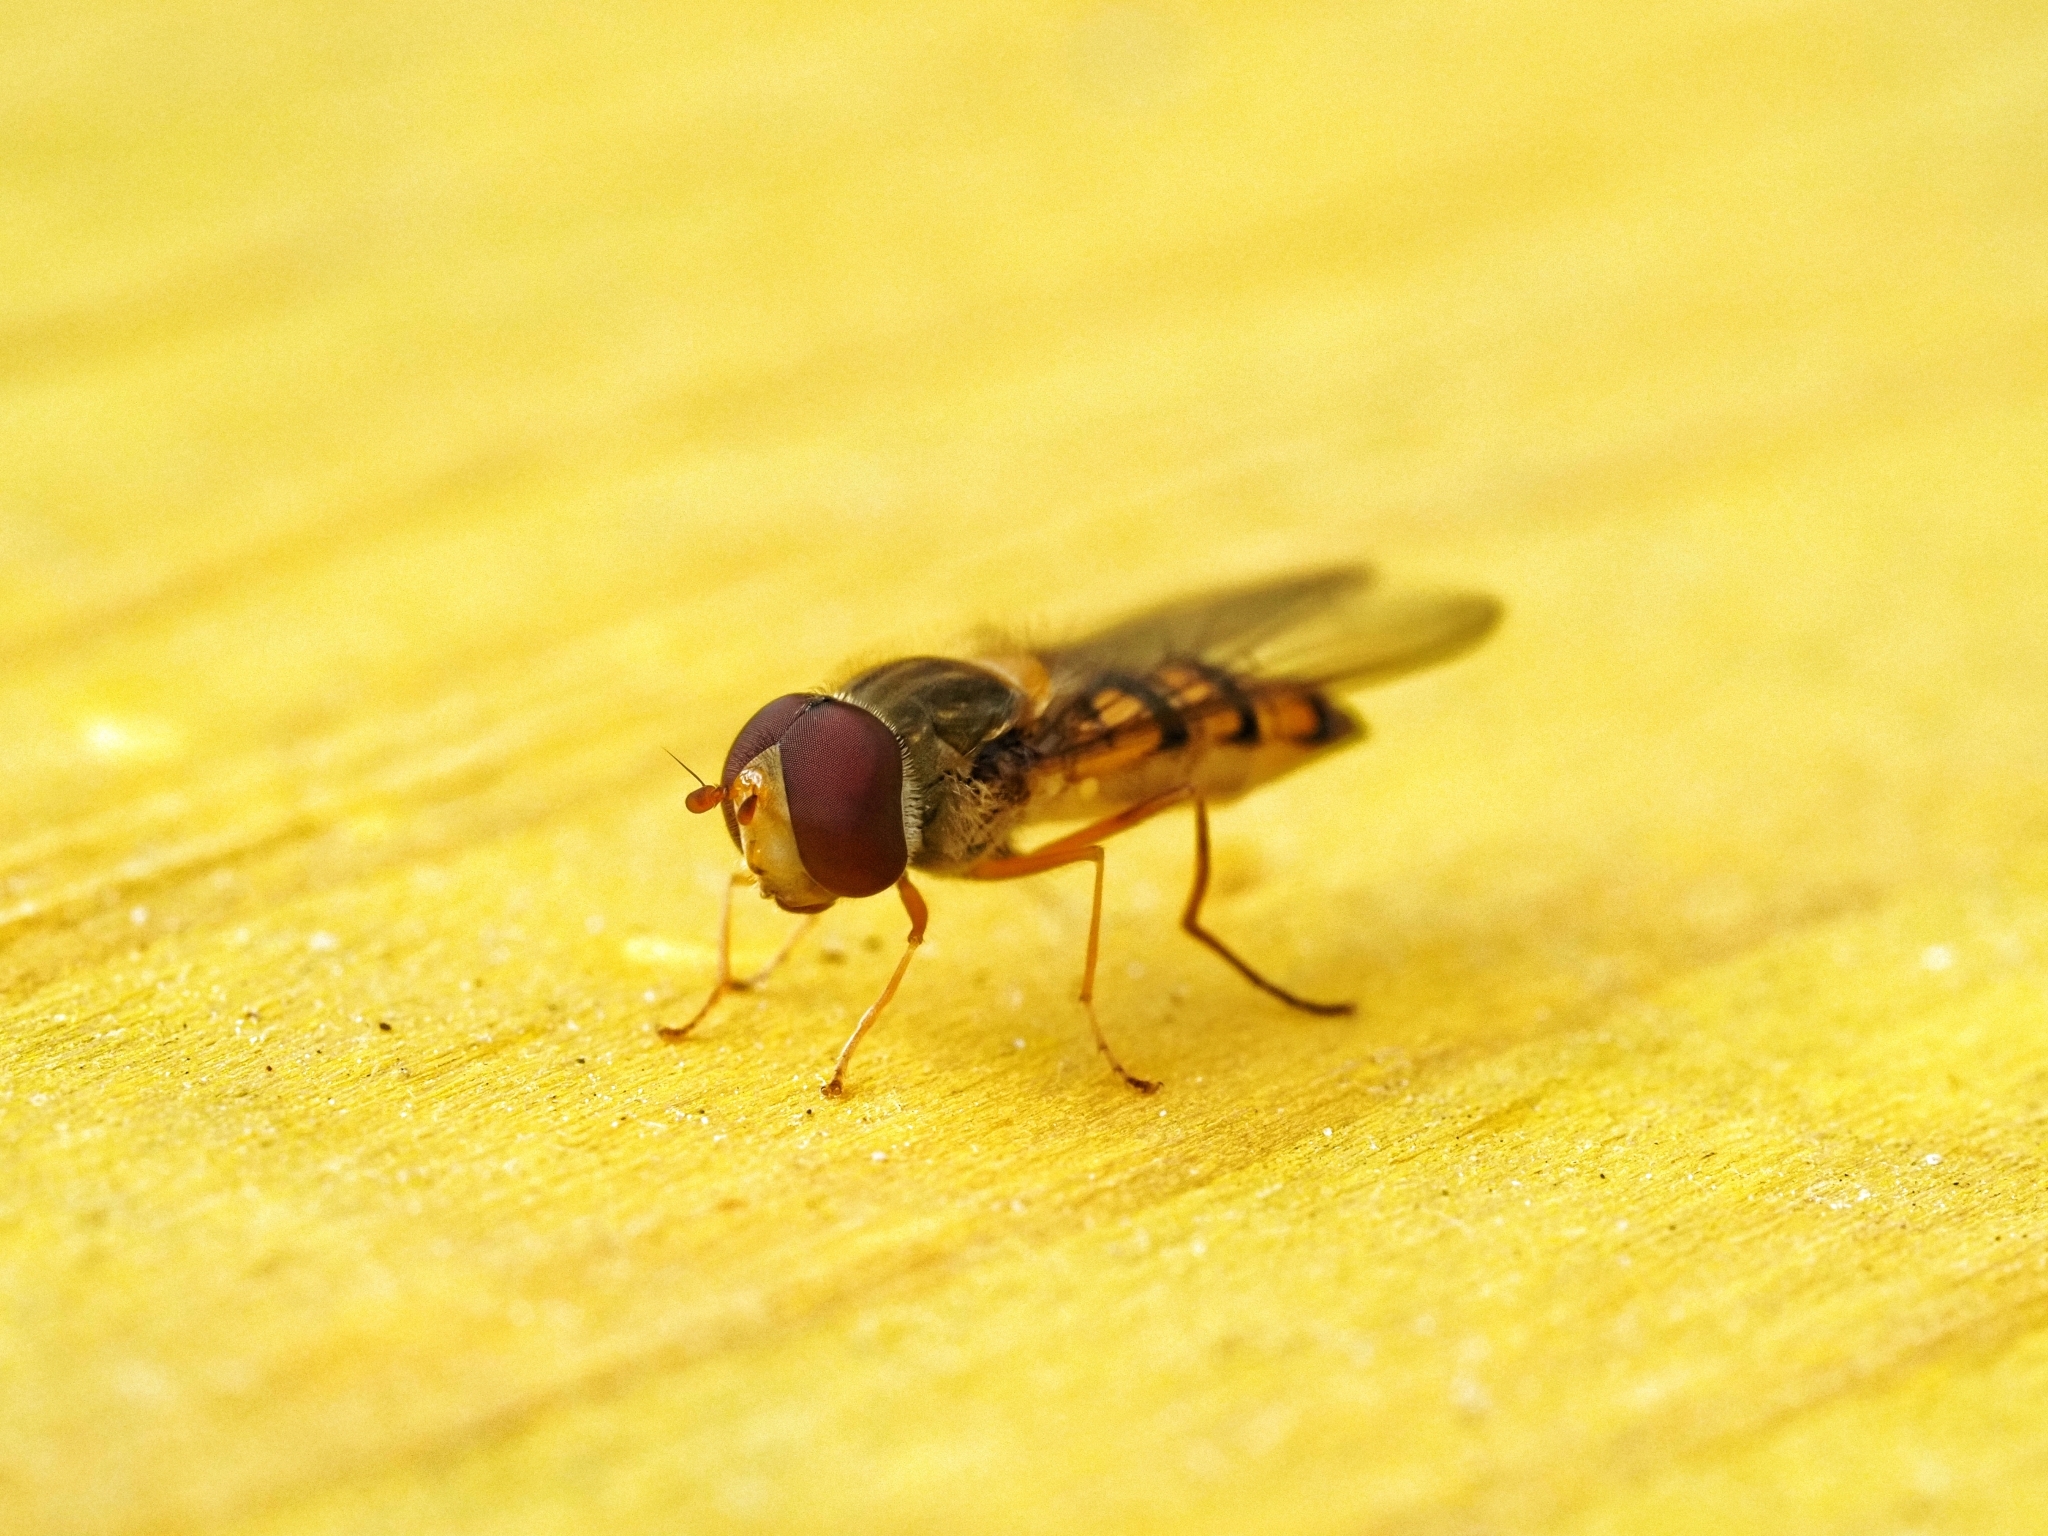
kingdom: Animalia
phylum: Arthropoda
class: Insecta
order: Diptera
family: Syrphidae
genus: Episyrphus
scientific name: Episyrphus balteatus
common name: Marmalade hoverfly
